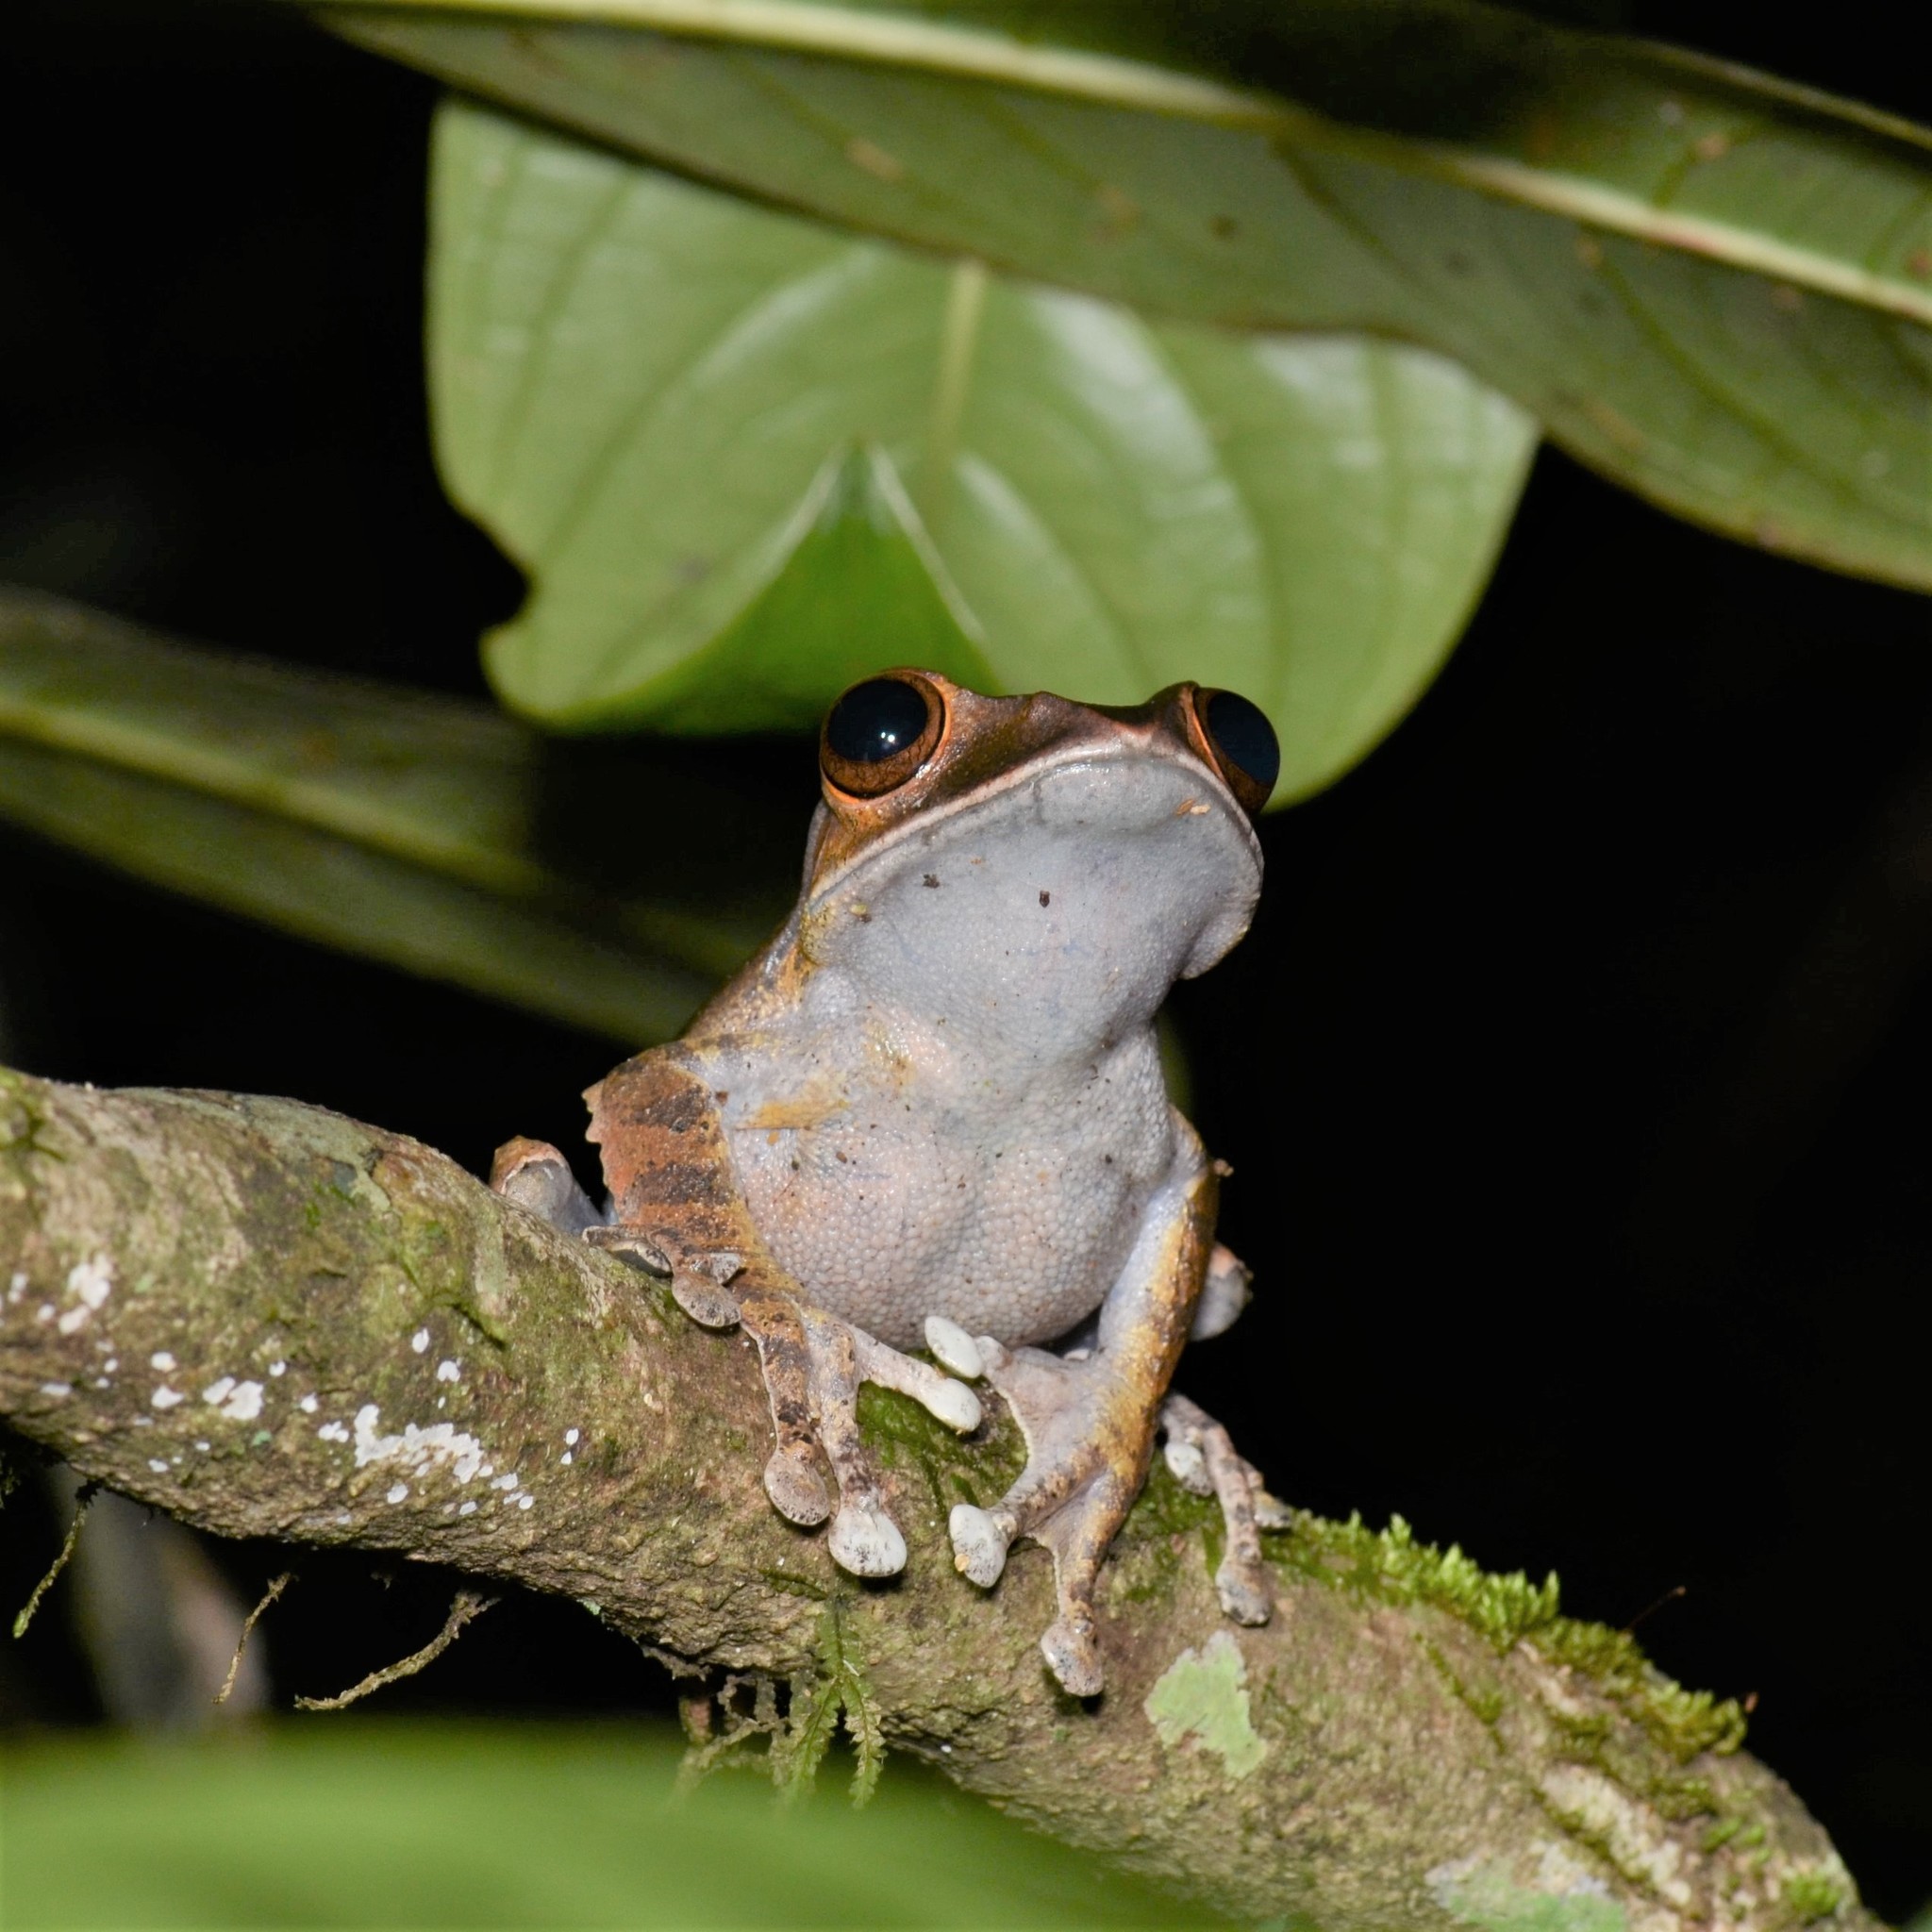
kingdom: Animalia
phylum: Chordata
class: Amphibia
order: Anura
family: Mantellidae
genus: Boophis
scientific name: Boophis madagascariensis
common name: Madagascar bright-eyed frog
